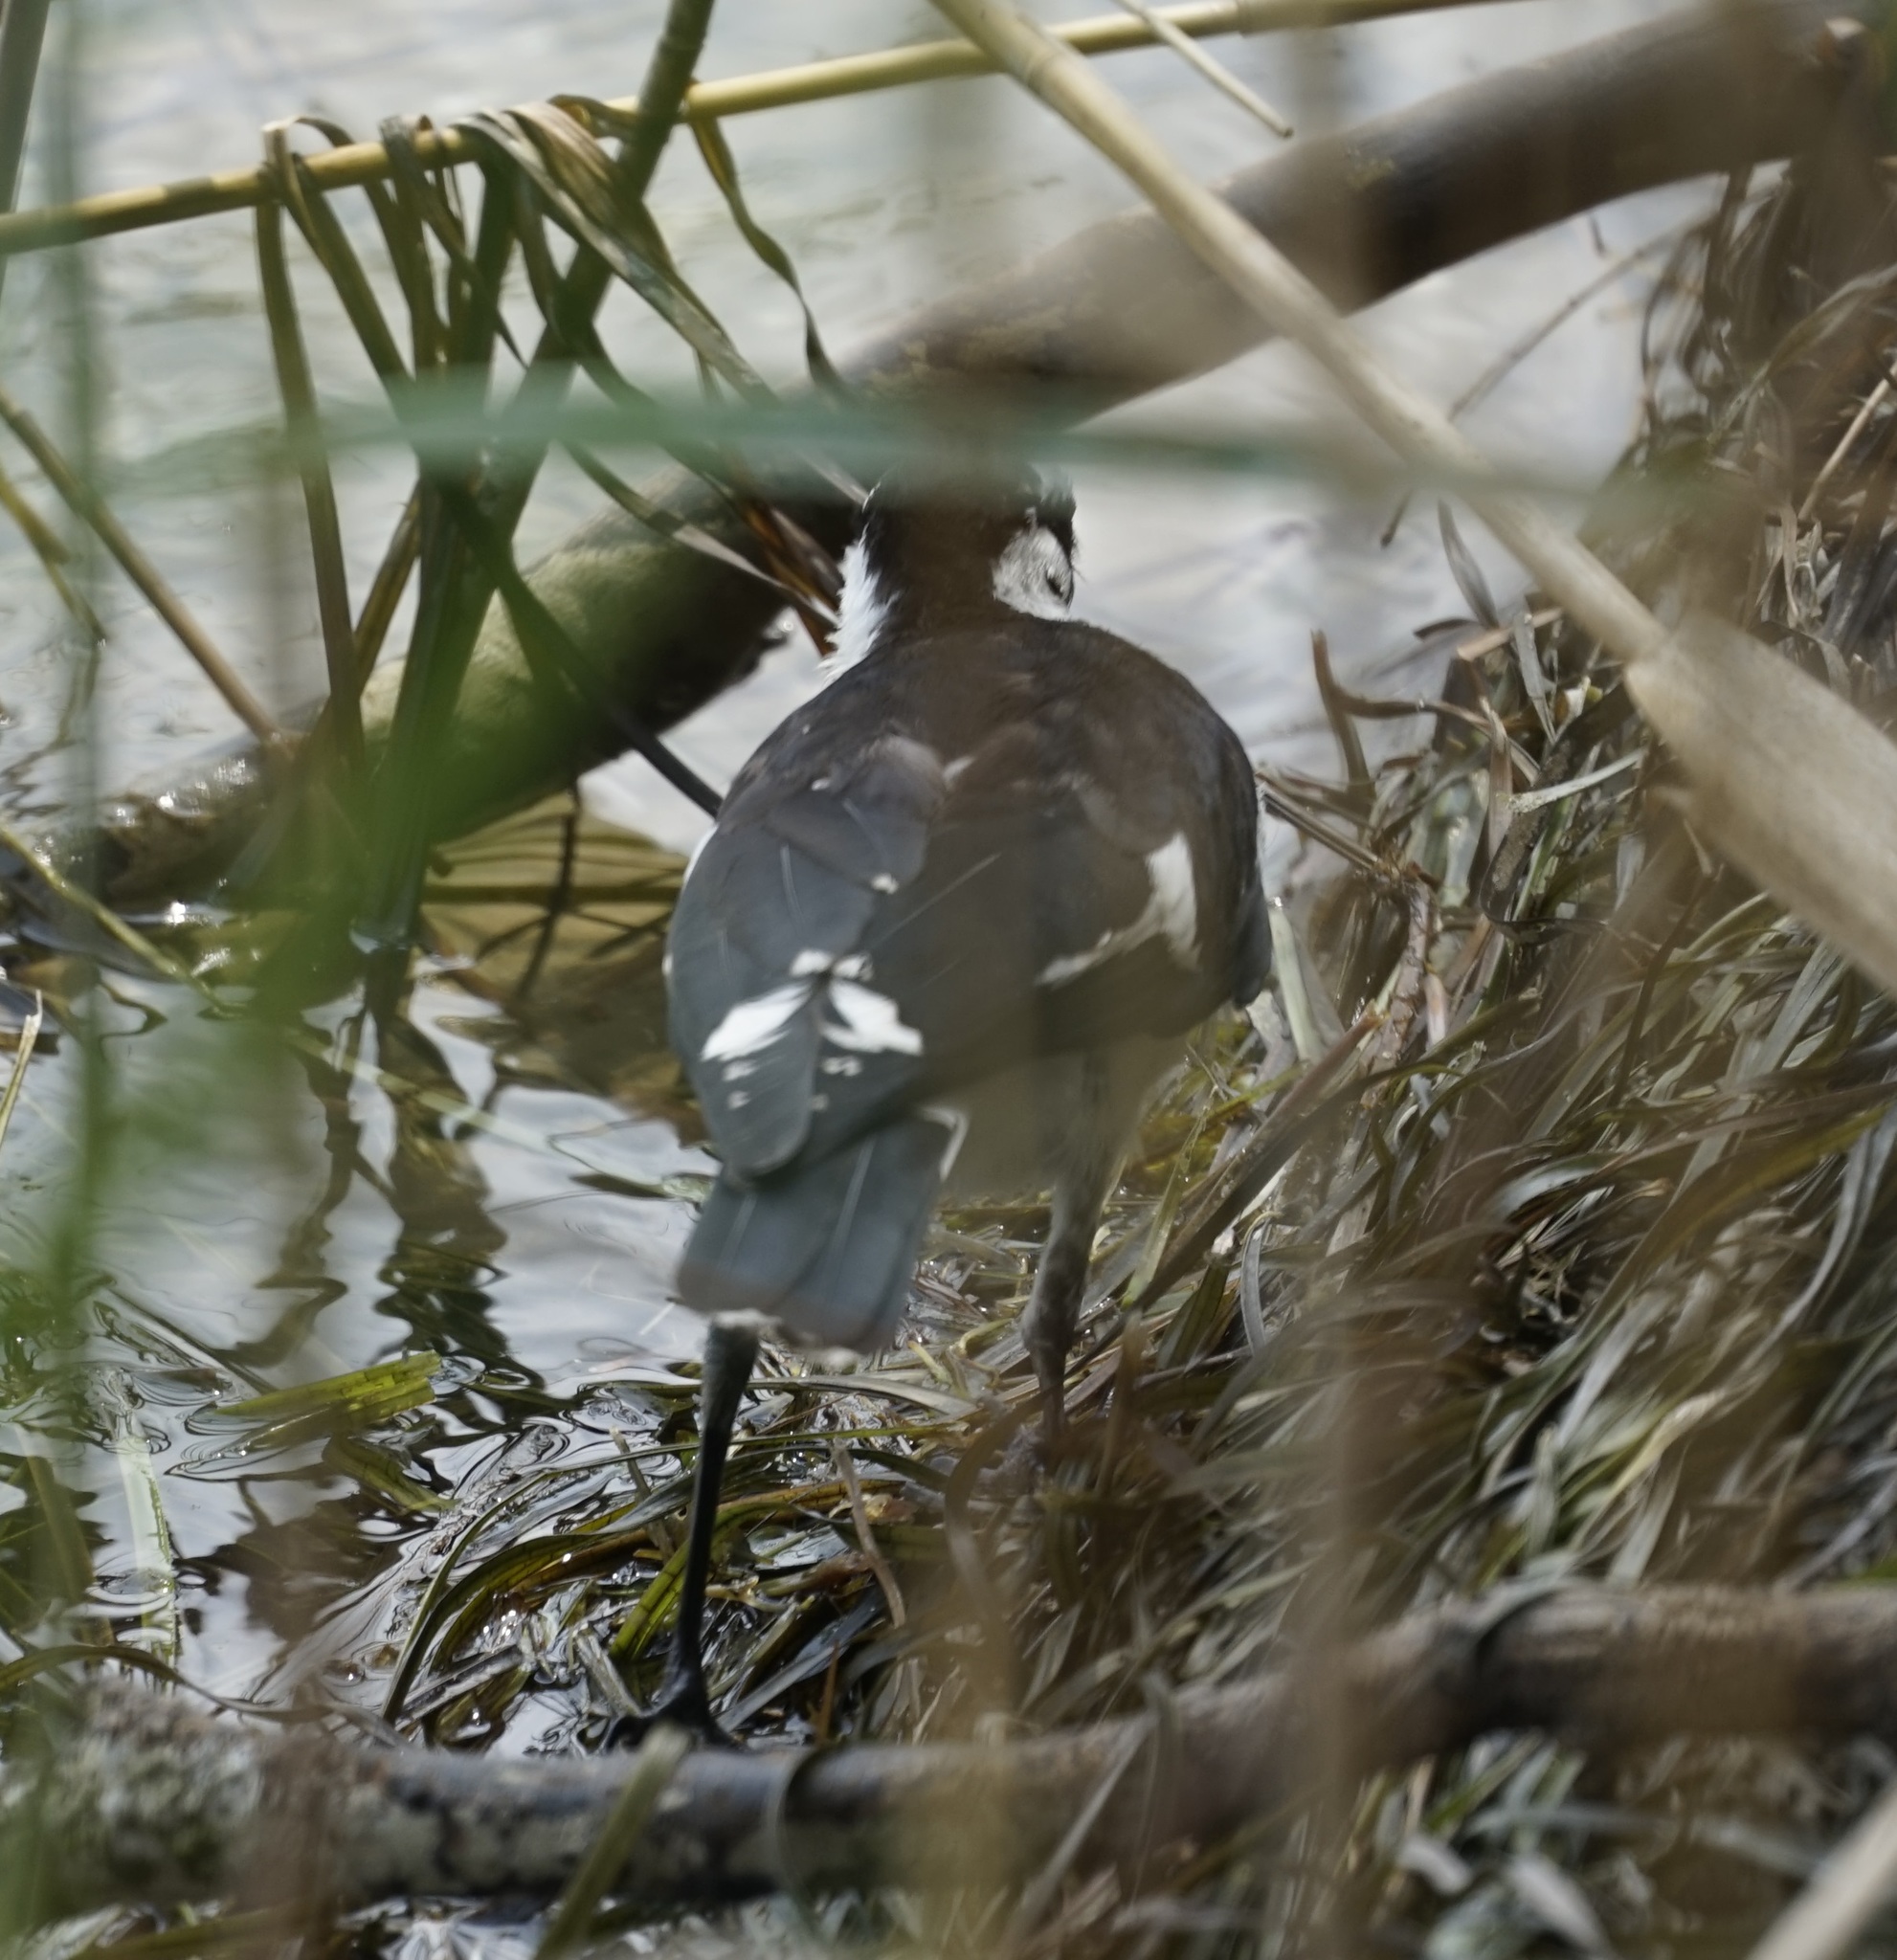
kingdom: Animalia
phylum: Chordata
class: Aves
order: Passeriformes
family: Monarchidae
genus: Grallina
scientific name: Grallina cyanoleuca
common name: Magpie-lark
